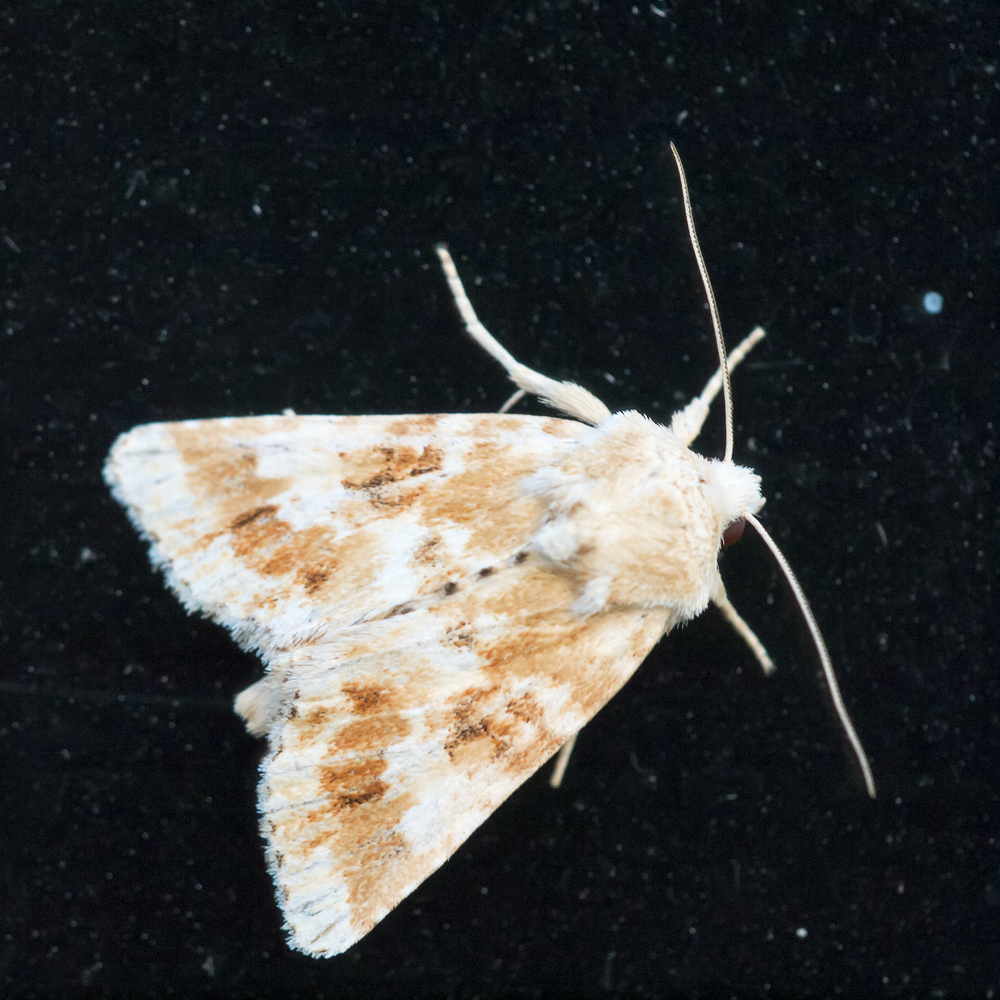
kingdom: Animalia
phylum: Arthropoda
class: Insecta
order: Lepidoptera
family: Noctuidae
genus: Eremobia
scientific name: Eremobia ochroleuca
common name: Dusky sallow
